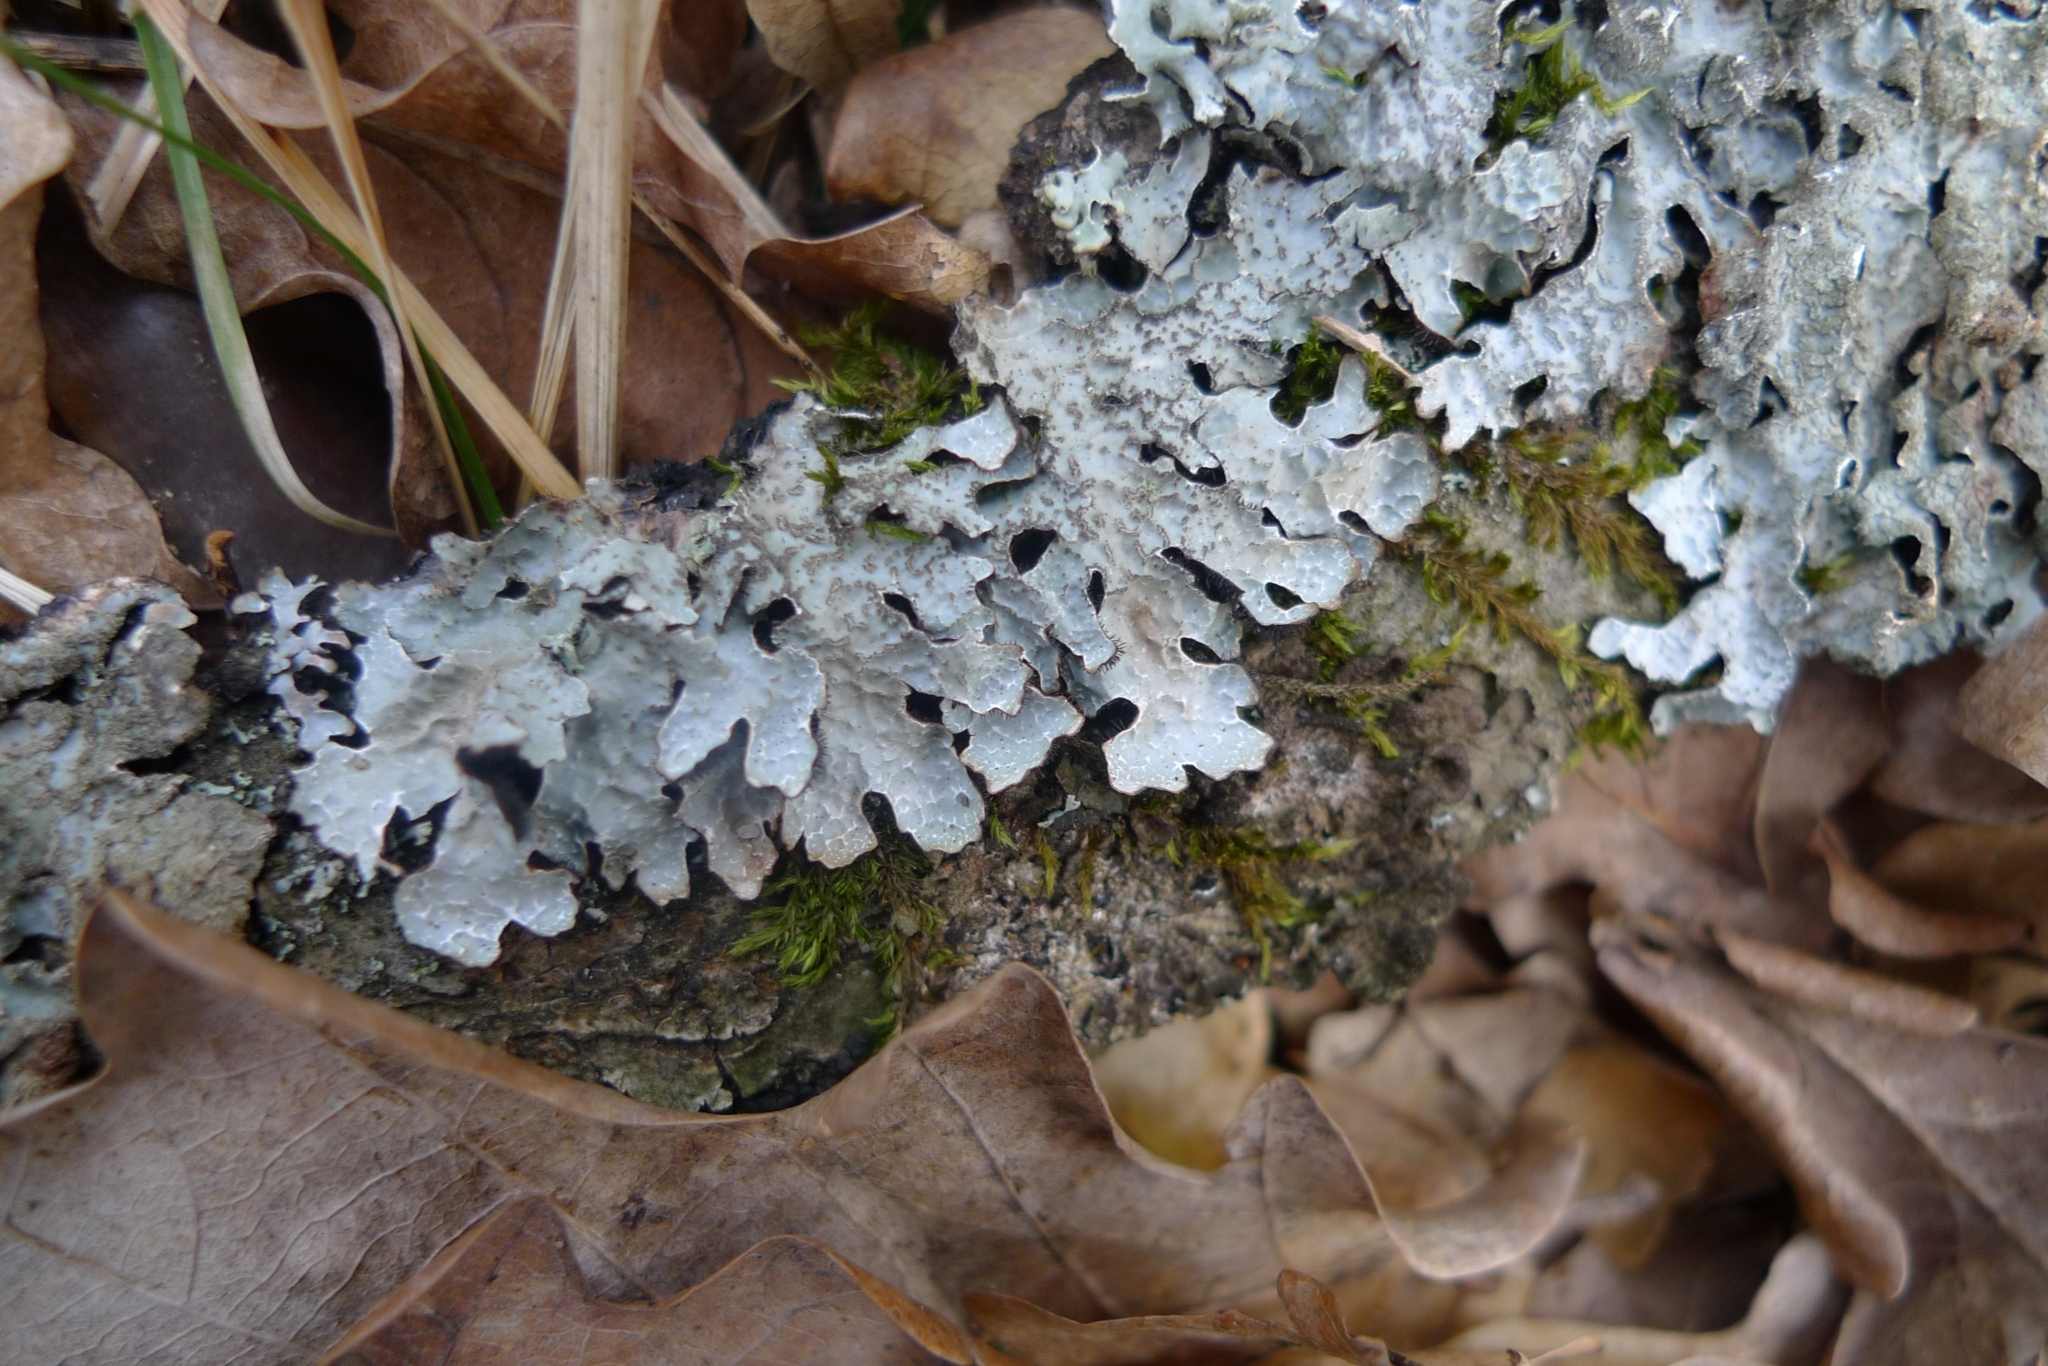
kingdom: Fungi
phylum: Ascomycota
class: Lecanoromycetes
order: Lecanorales
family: Parmeliaceae
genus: Parmelia
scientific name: Parmelia sulcata
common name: Netted shield lichen
